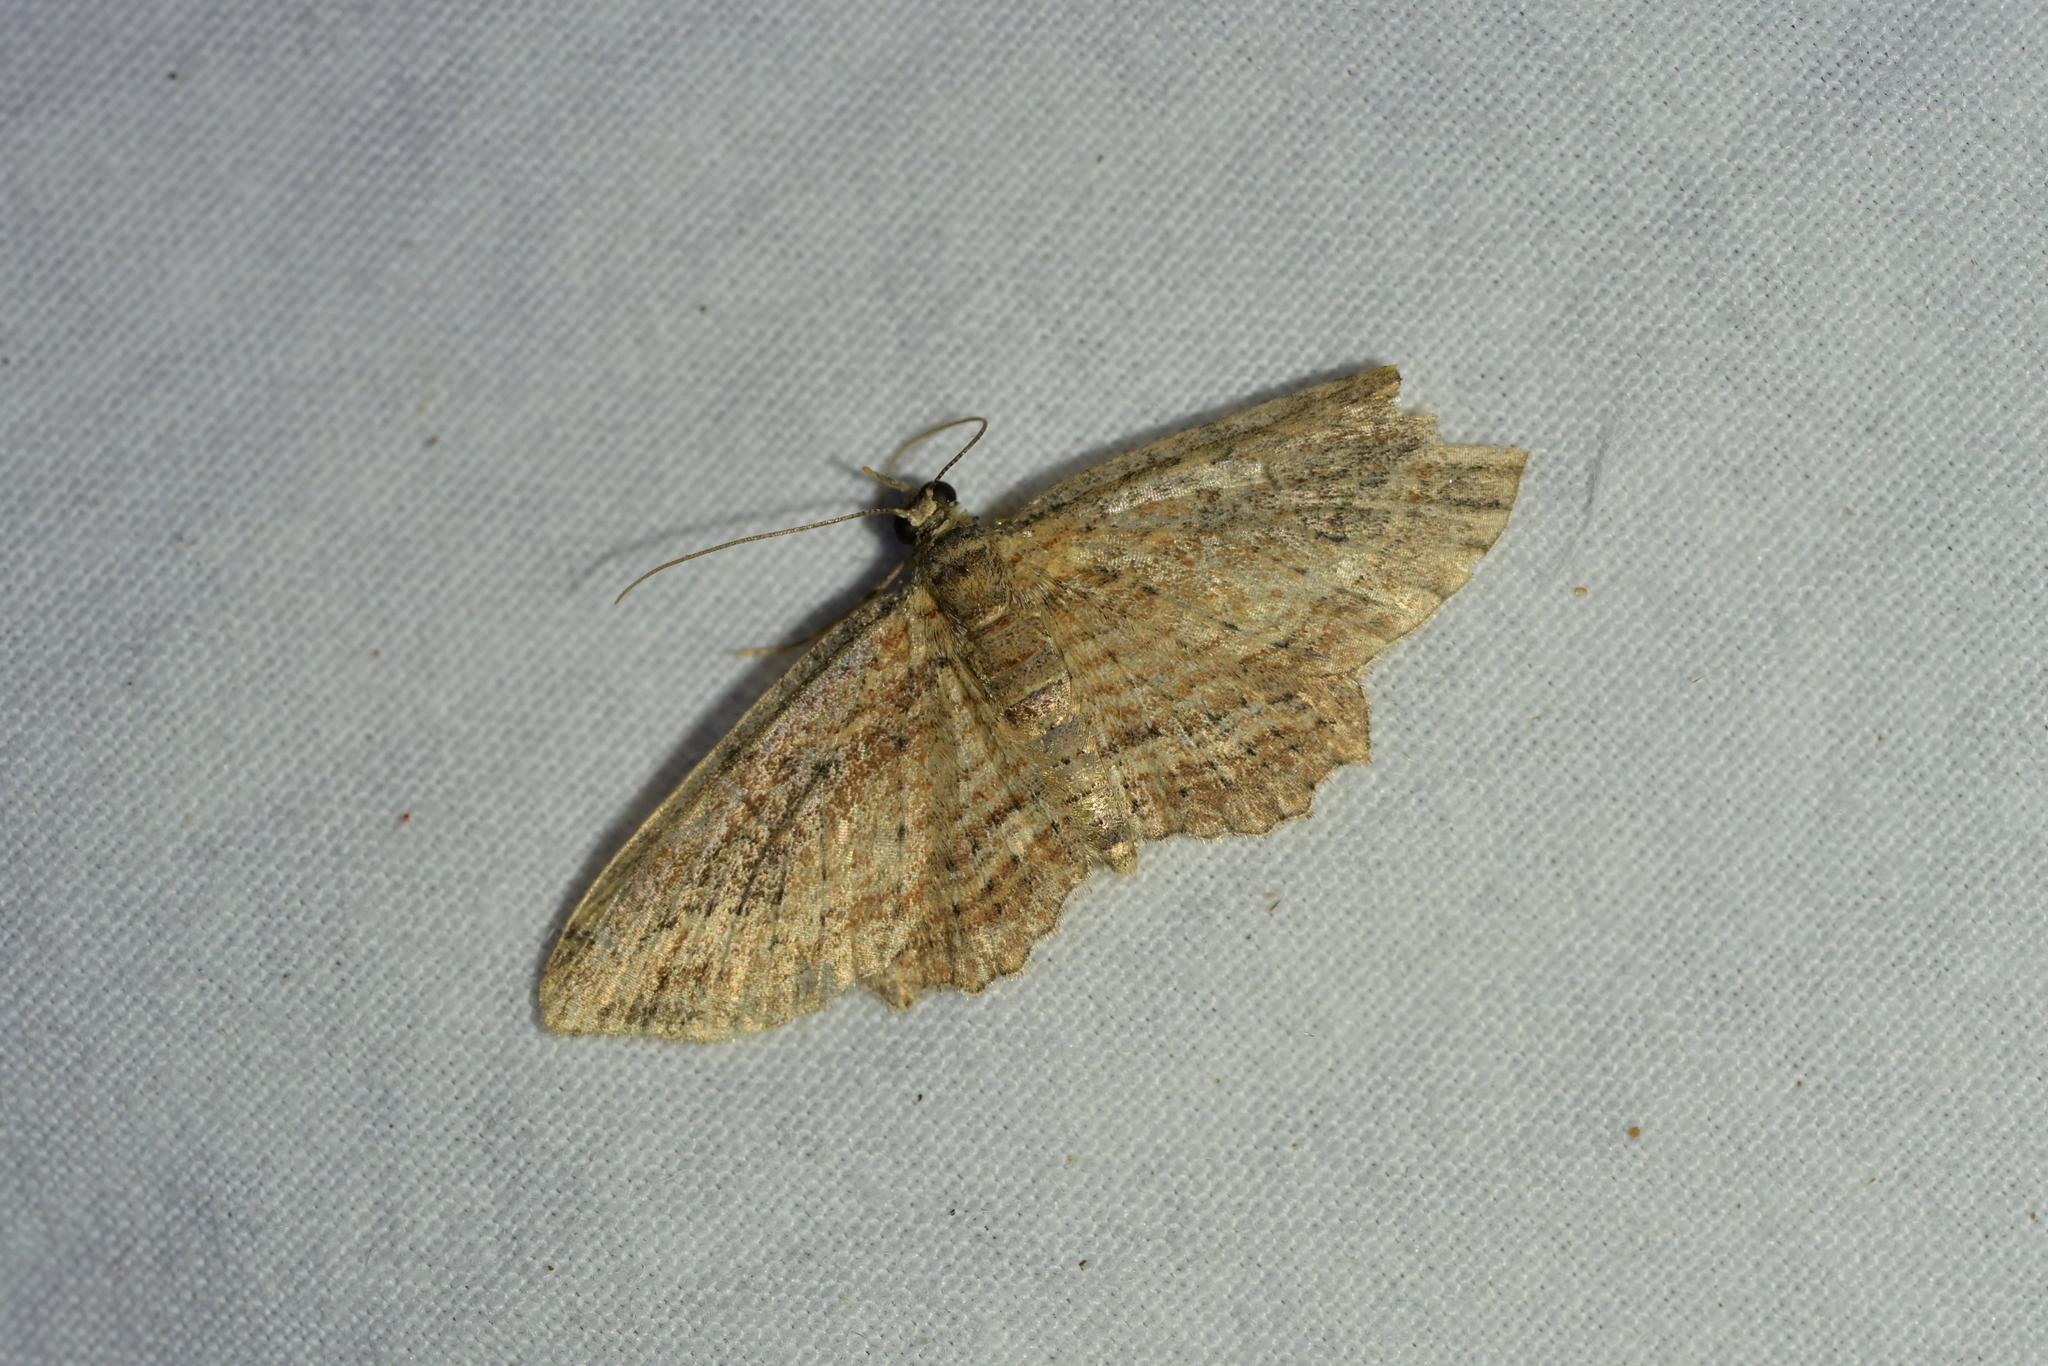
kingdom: Animalia
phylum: Arthropoda
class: Insecta
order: Lepidoptera
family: Geometridae
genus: Chloroclystis
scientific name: Chloroclystis filata
